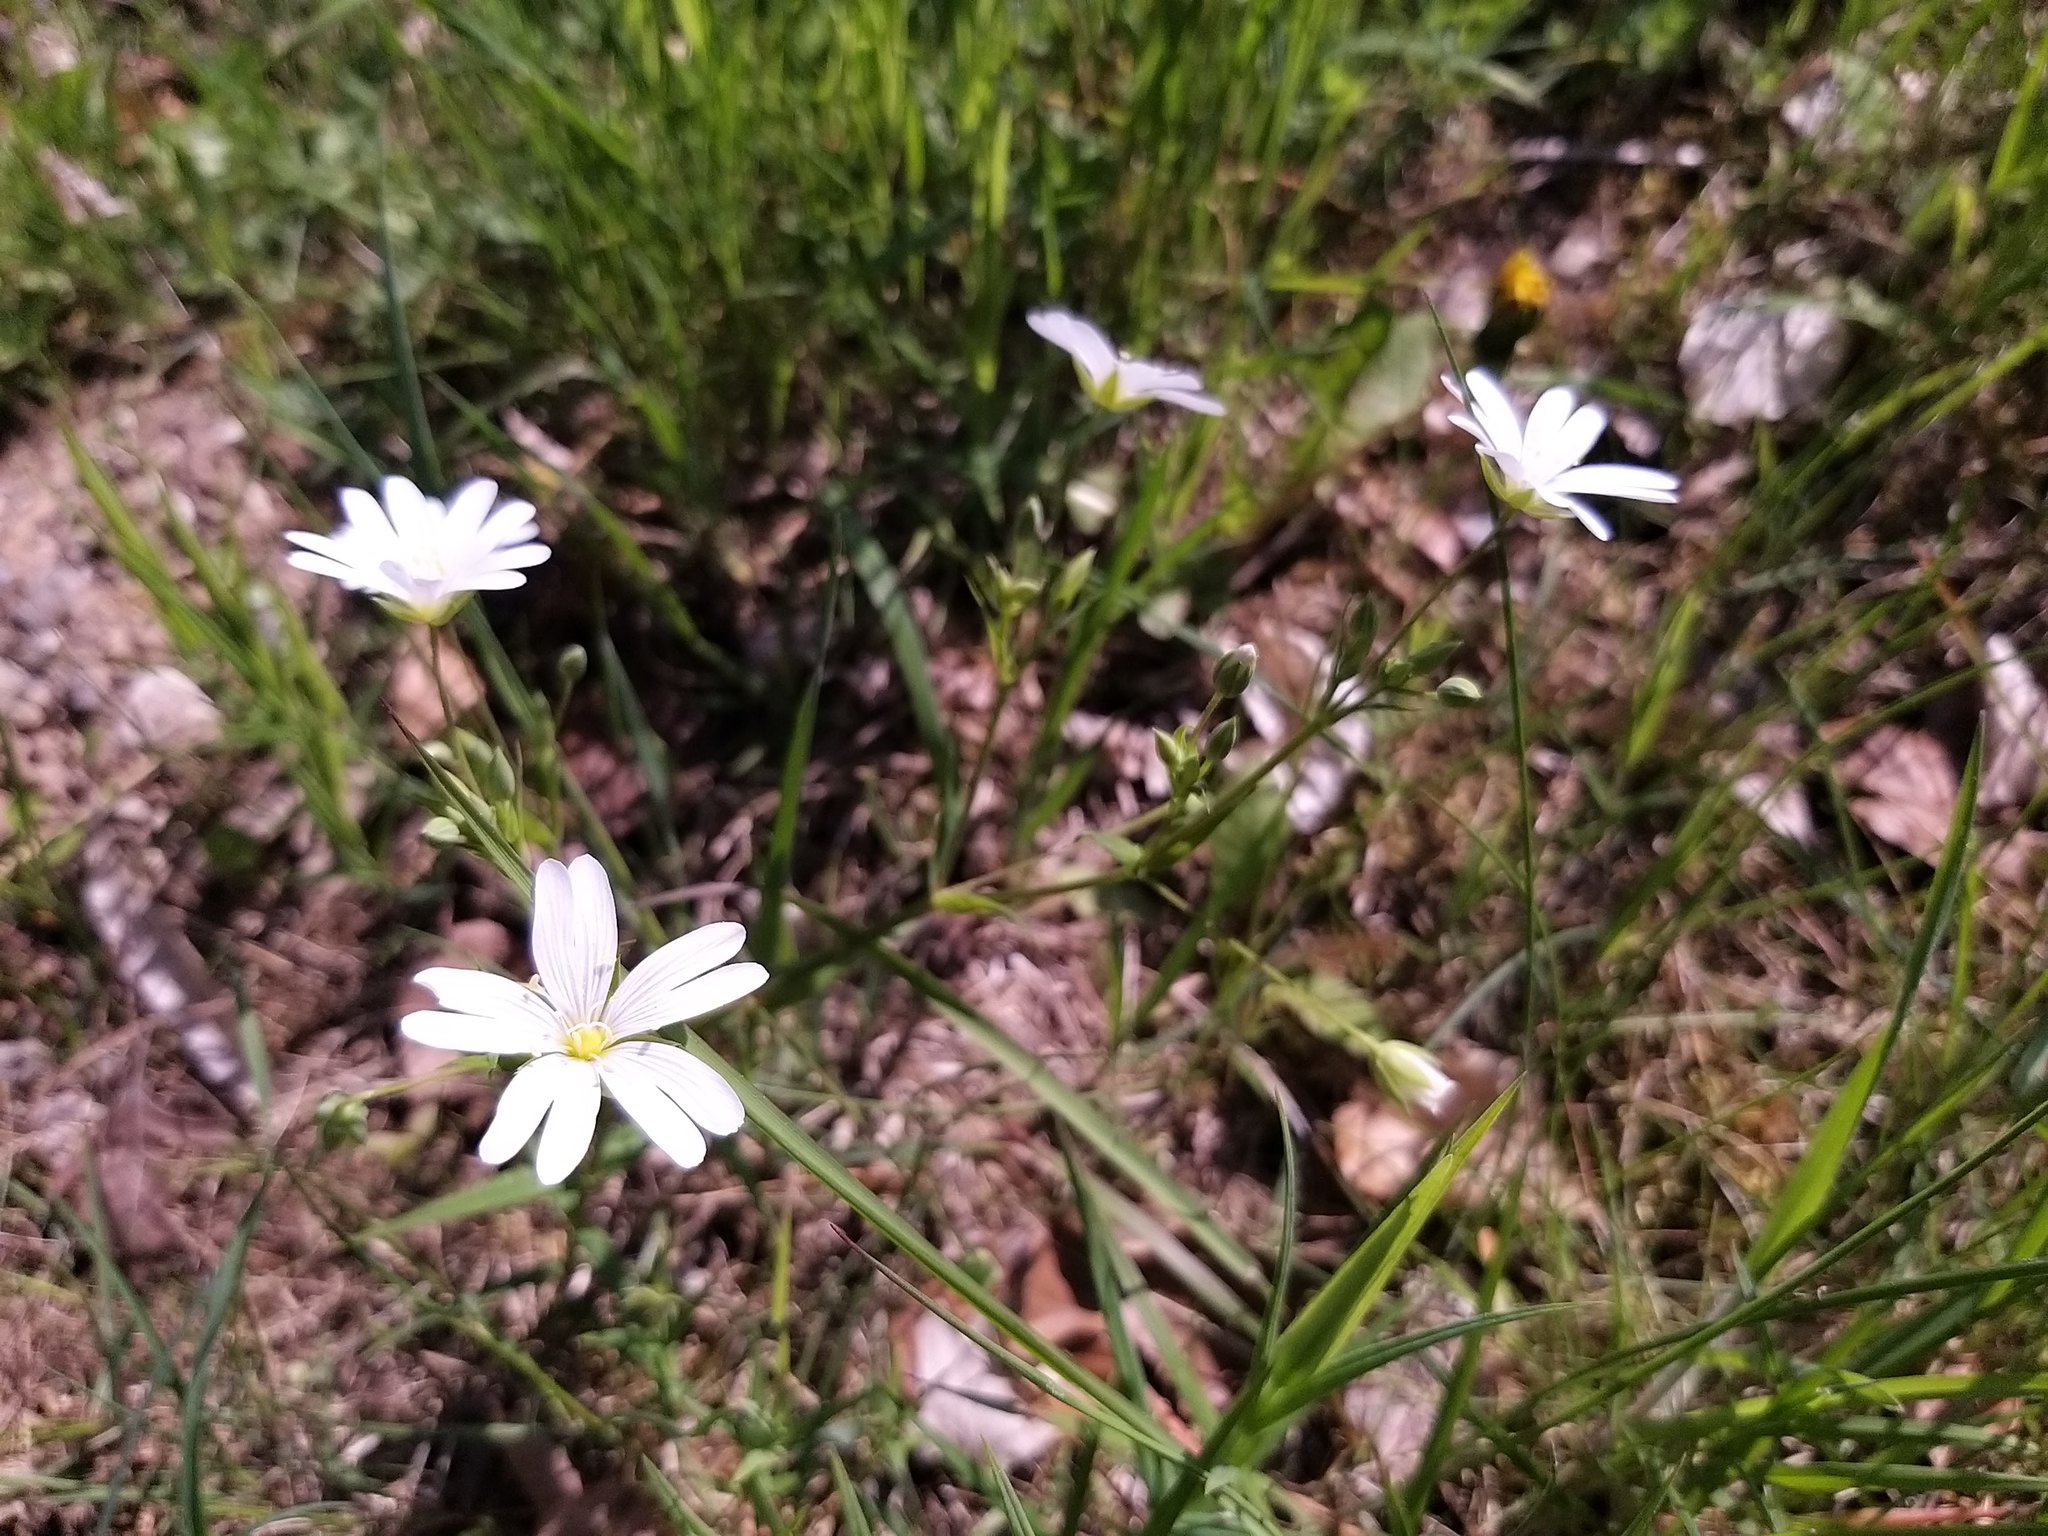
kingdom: Plantae
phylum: Tracheophyta
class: Magnoliopsida
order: Caryophyllales
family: Caryophyllaceae
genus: Rabelera
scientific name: Rabelera holostea
